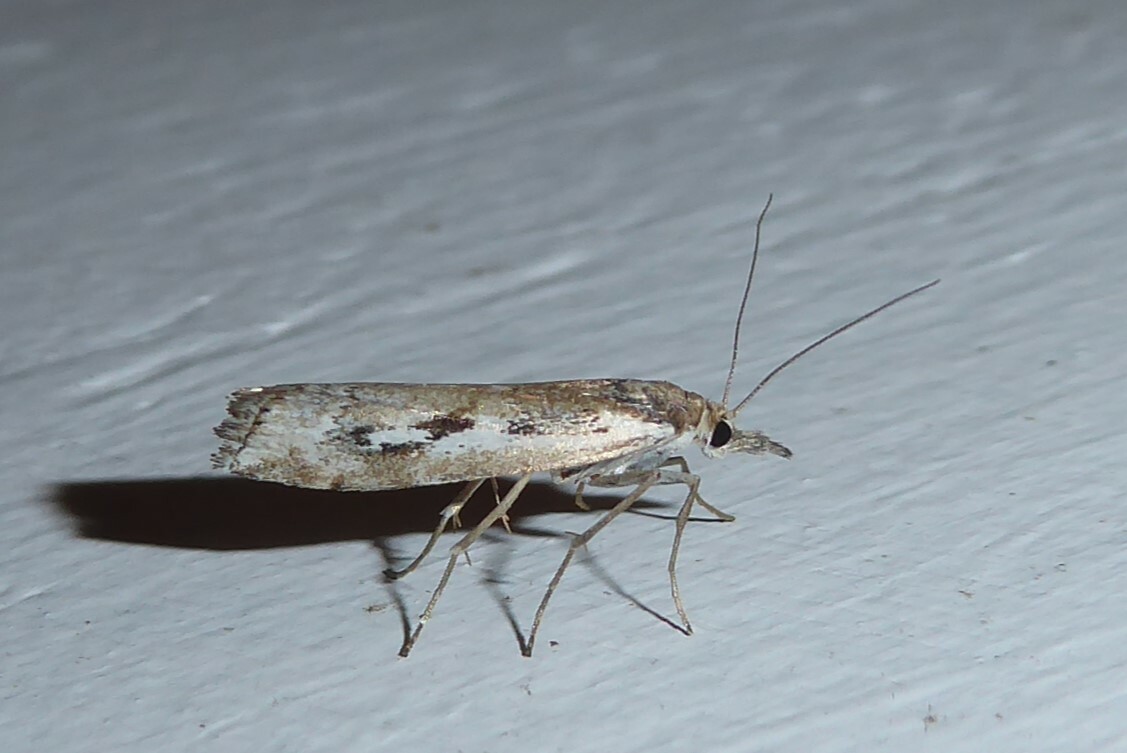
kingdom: Animalia
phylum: Arthropoda
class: Insecta
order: Lepidoptera
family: Crambidae
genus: Orocrambus
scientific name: Orocrambus vulgaris
